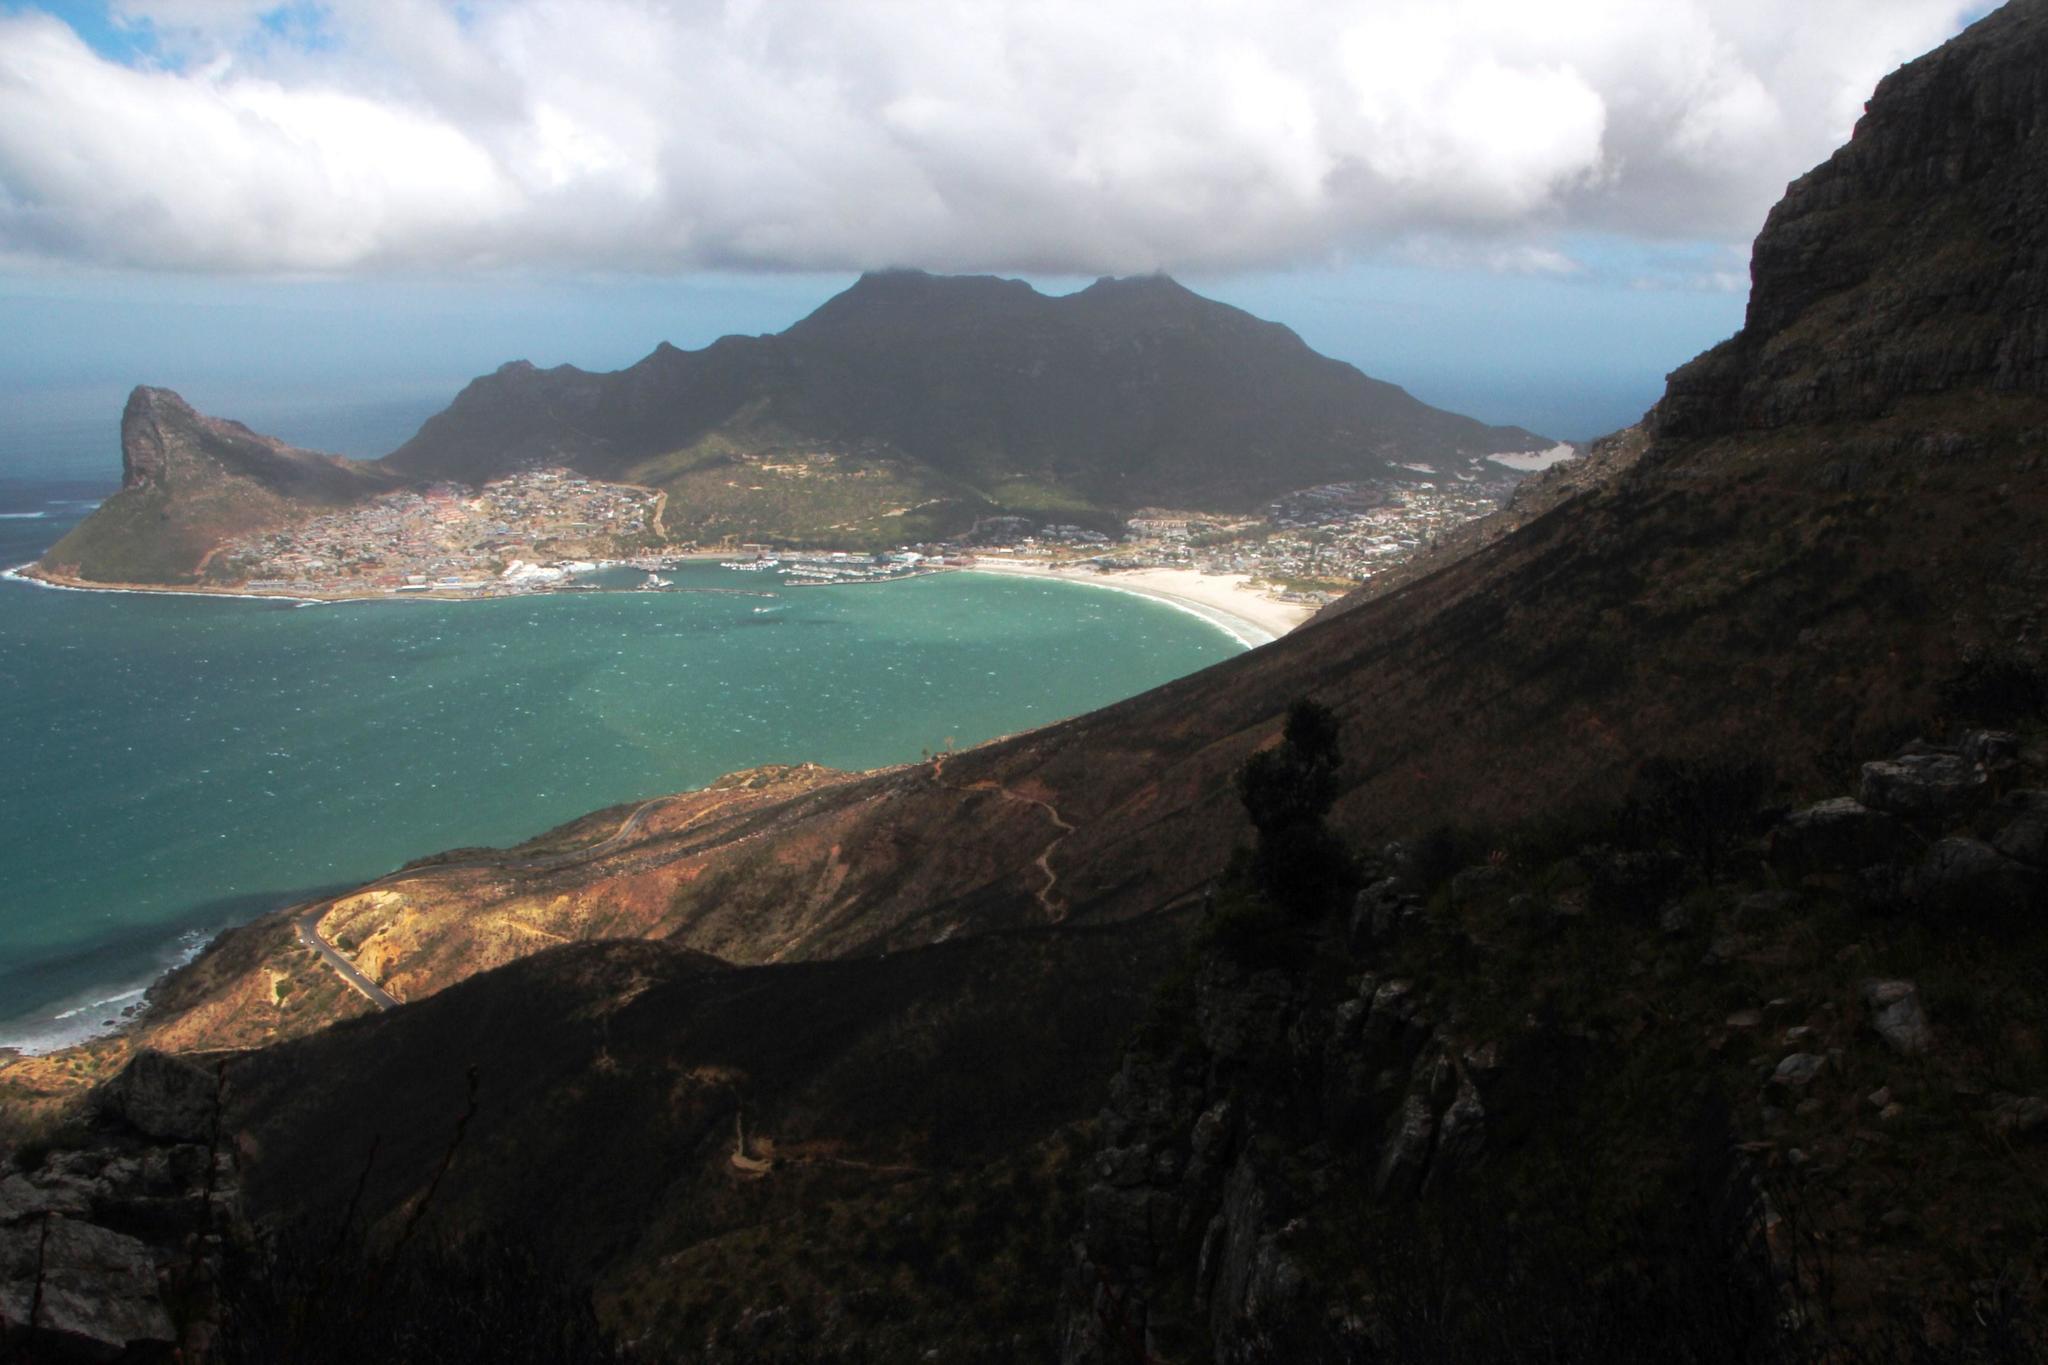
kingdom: Plantae
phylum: Tracheophyta
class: Magnoliopsida
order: Celastrales
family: Celastraceae
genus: Maurocenia
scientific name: Maurocenia frangula
